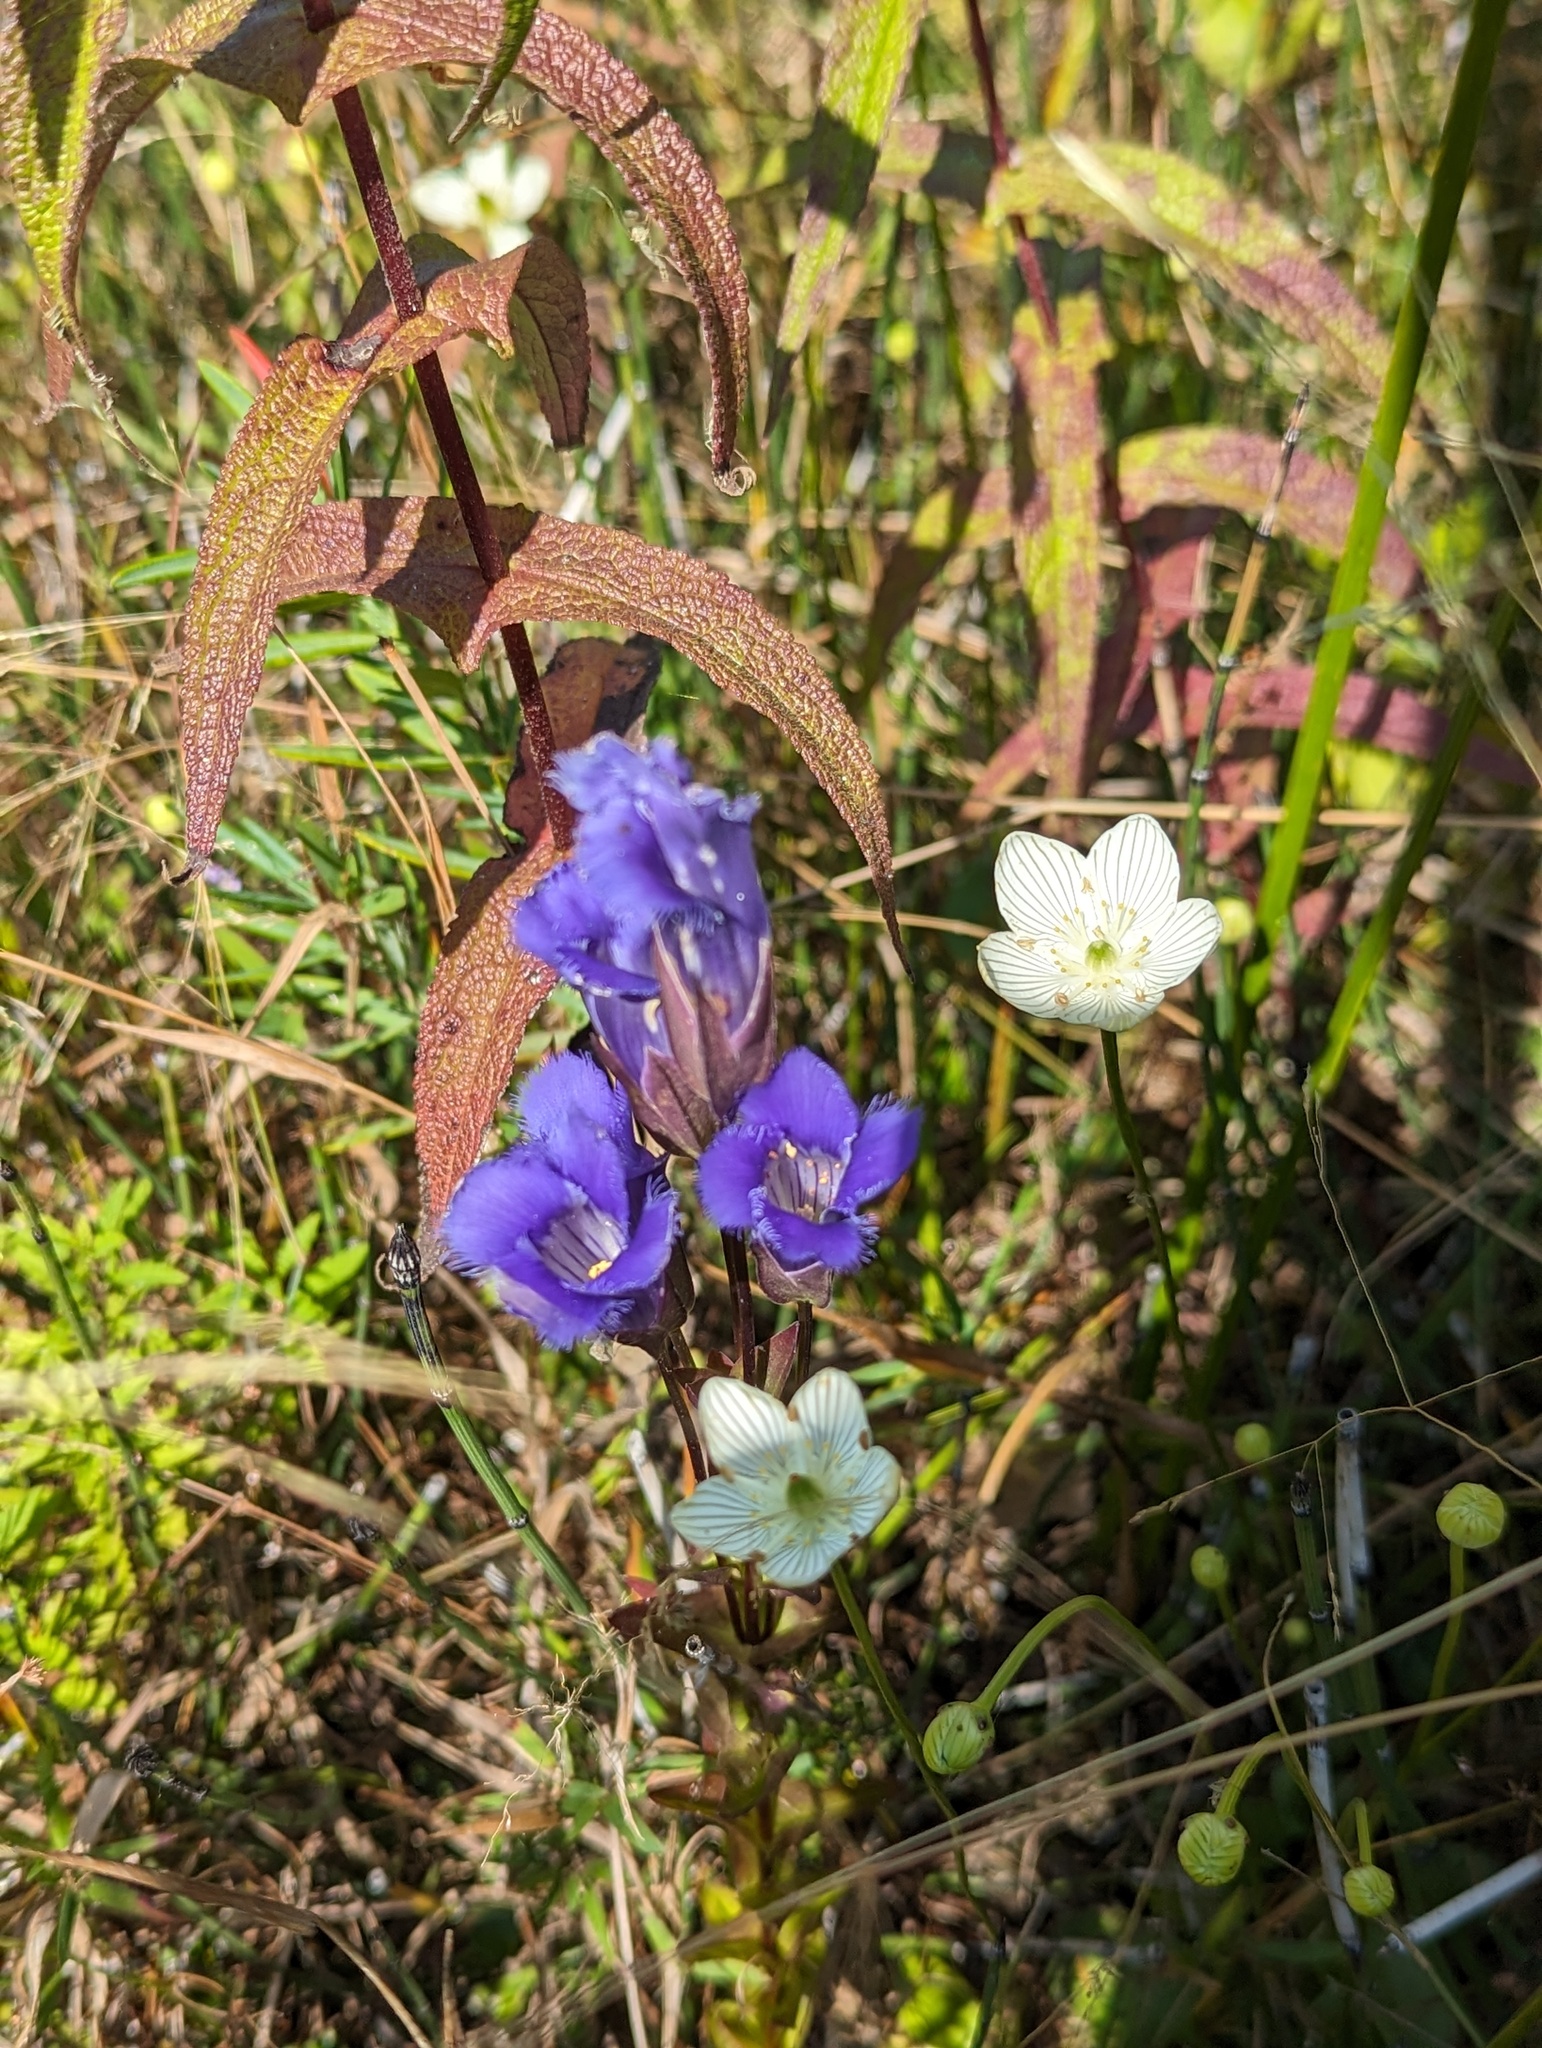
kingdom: Plantae
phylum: Tracheophyta
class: Magnoliopsida
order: Gentianales
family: Gentianaceae
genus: Gentianopsis
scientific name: Gentianopsis crinita
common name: Fringed-gentian
